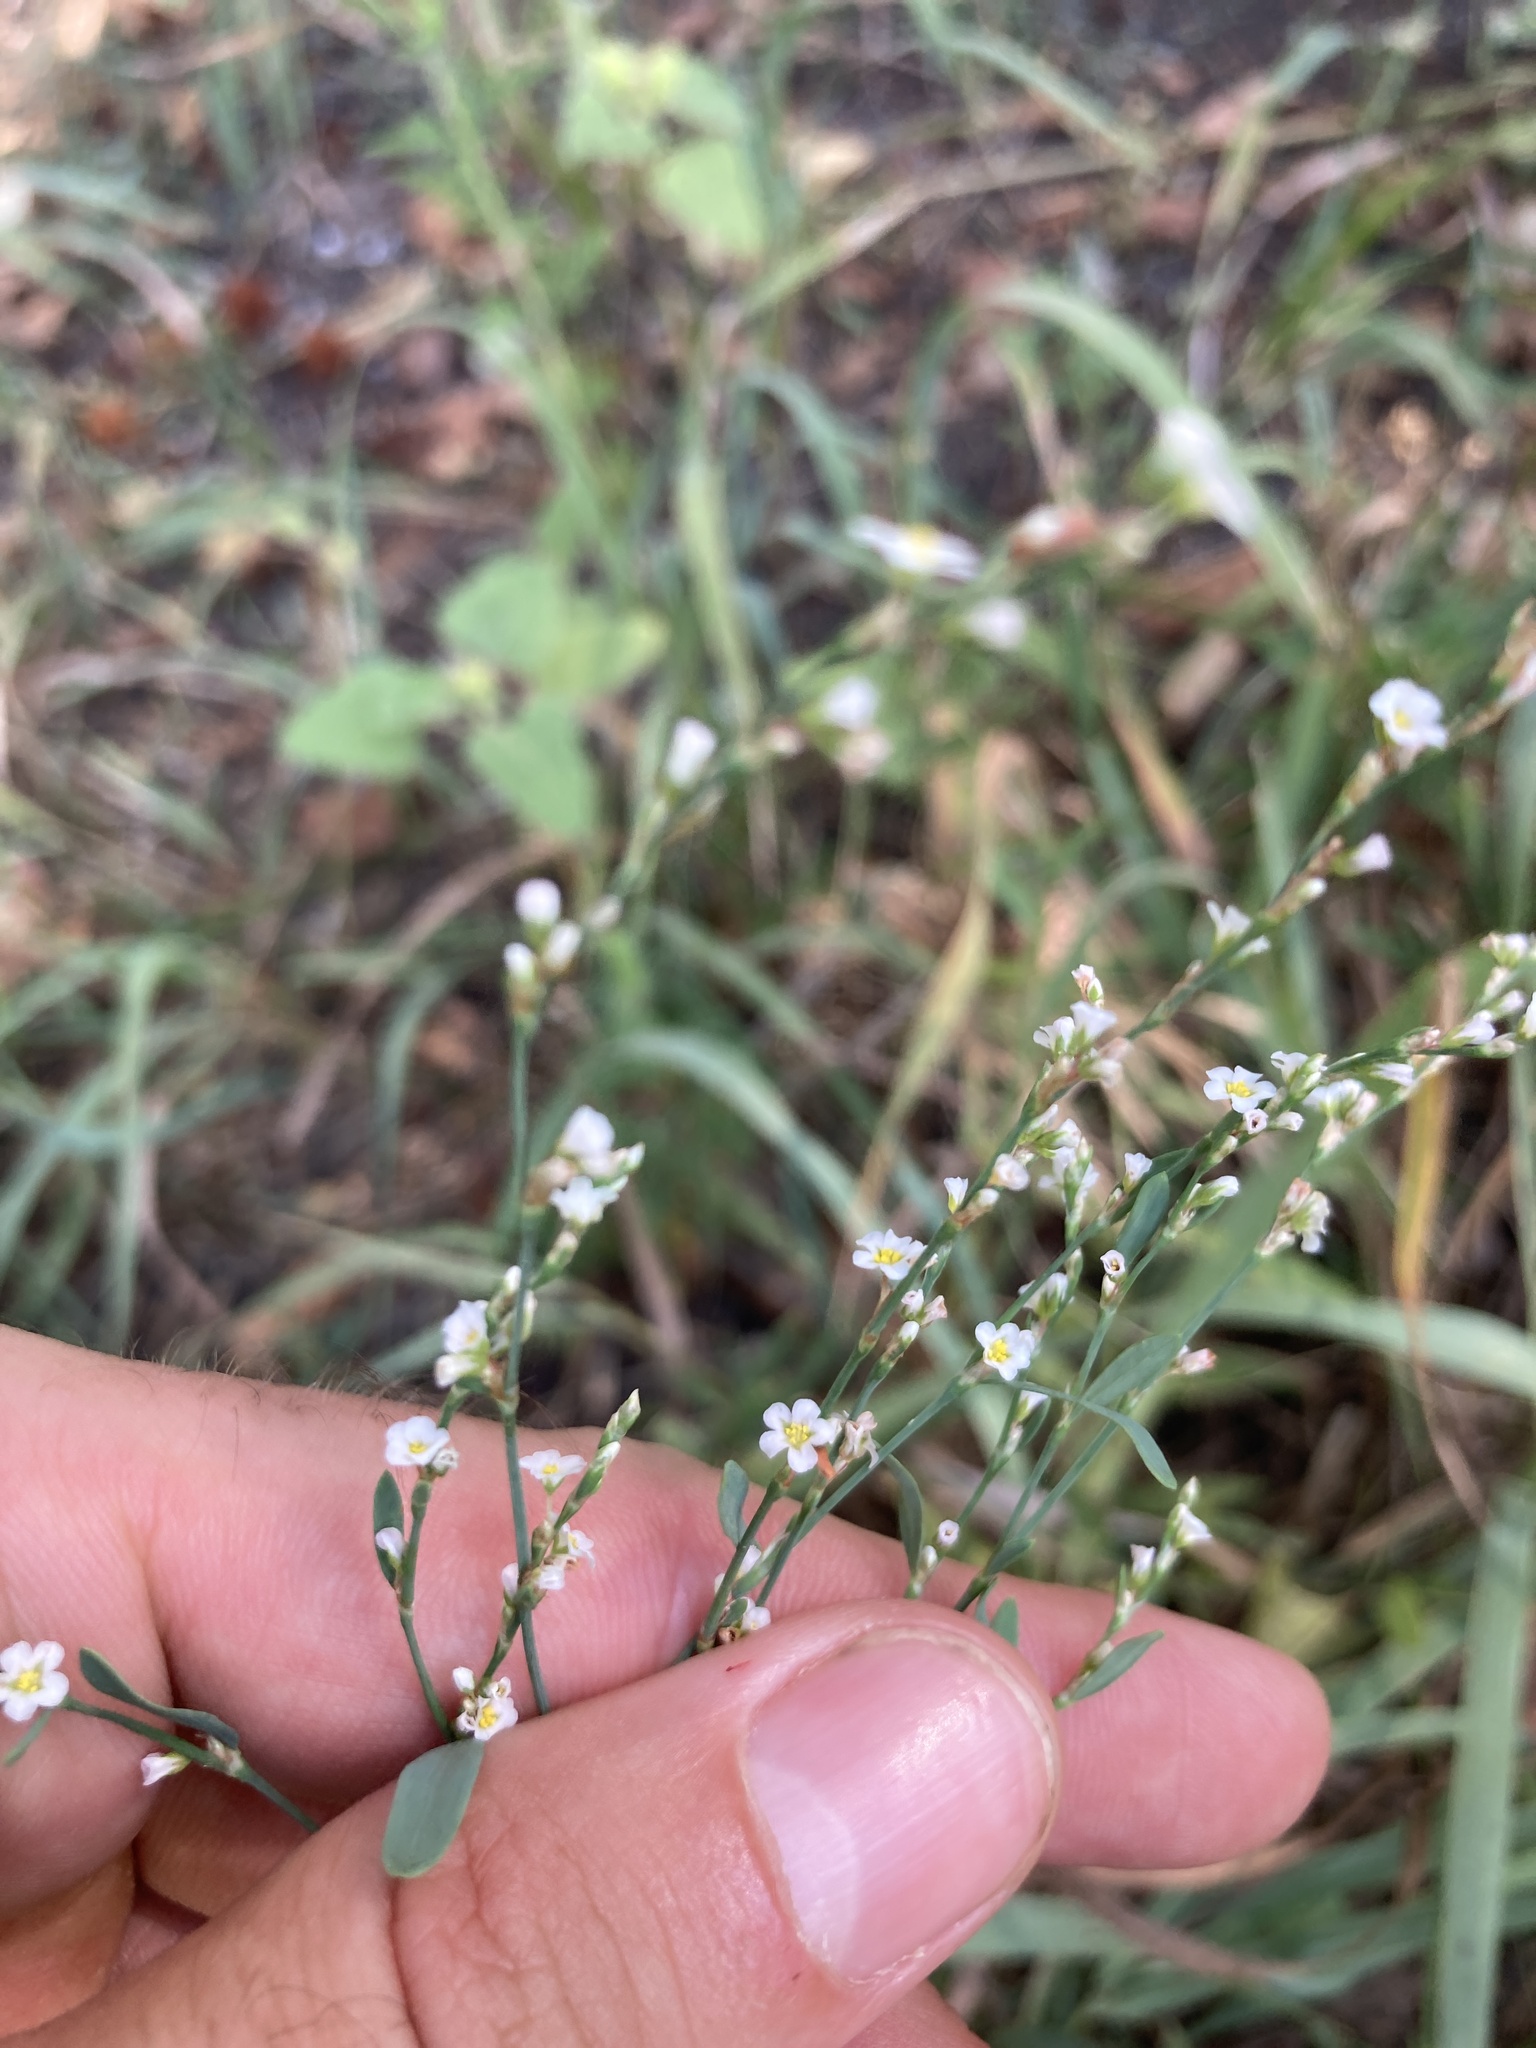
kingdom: Plantae
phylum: Tracheophyta
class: Magnoliopsida
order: Caryophyllales
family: Polygonaceae
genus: Polygonum
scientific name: Polygonum arenastrum
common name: Equal-leaved knotgrass
